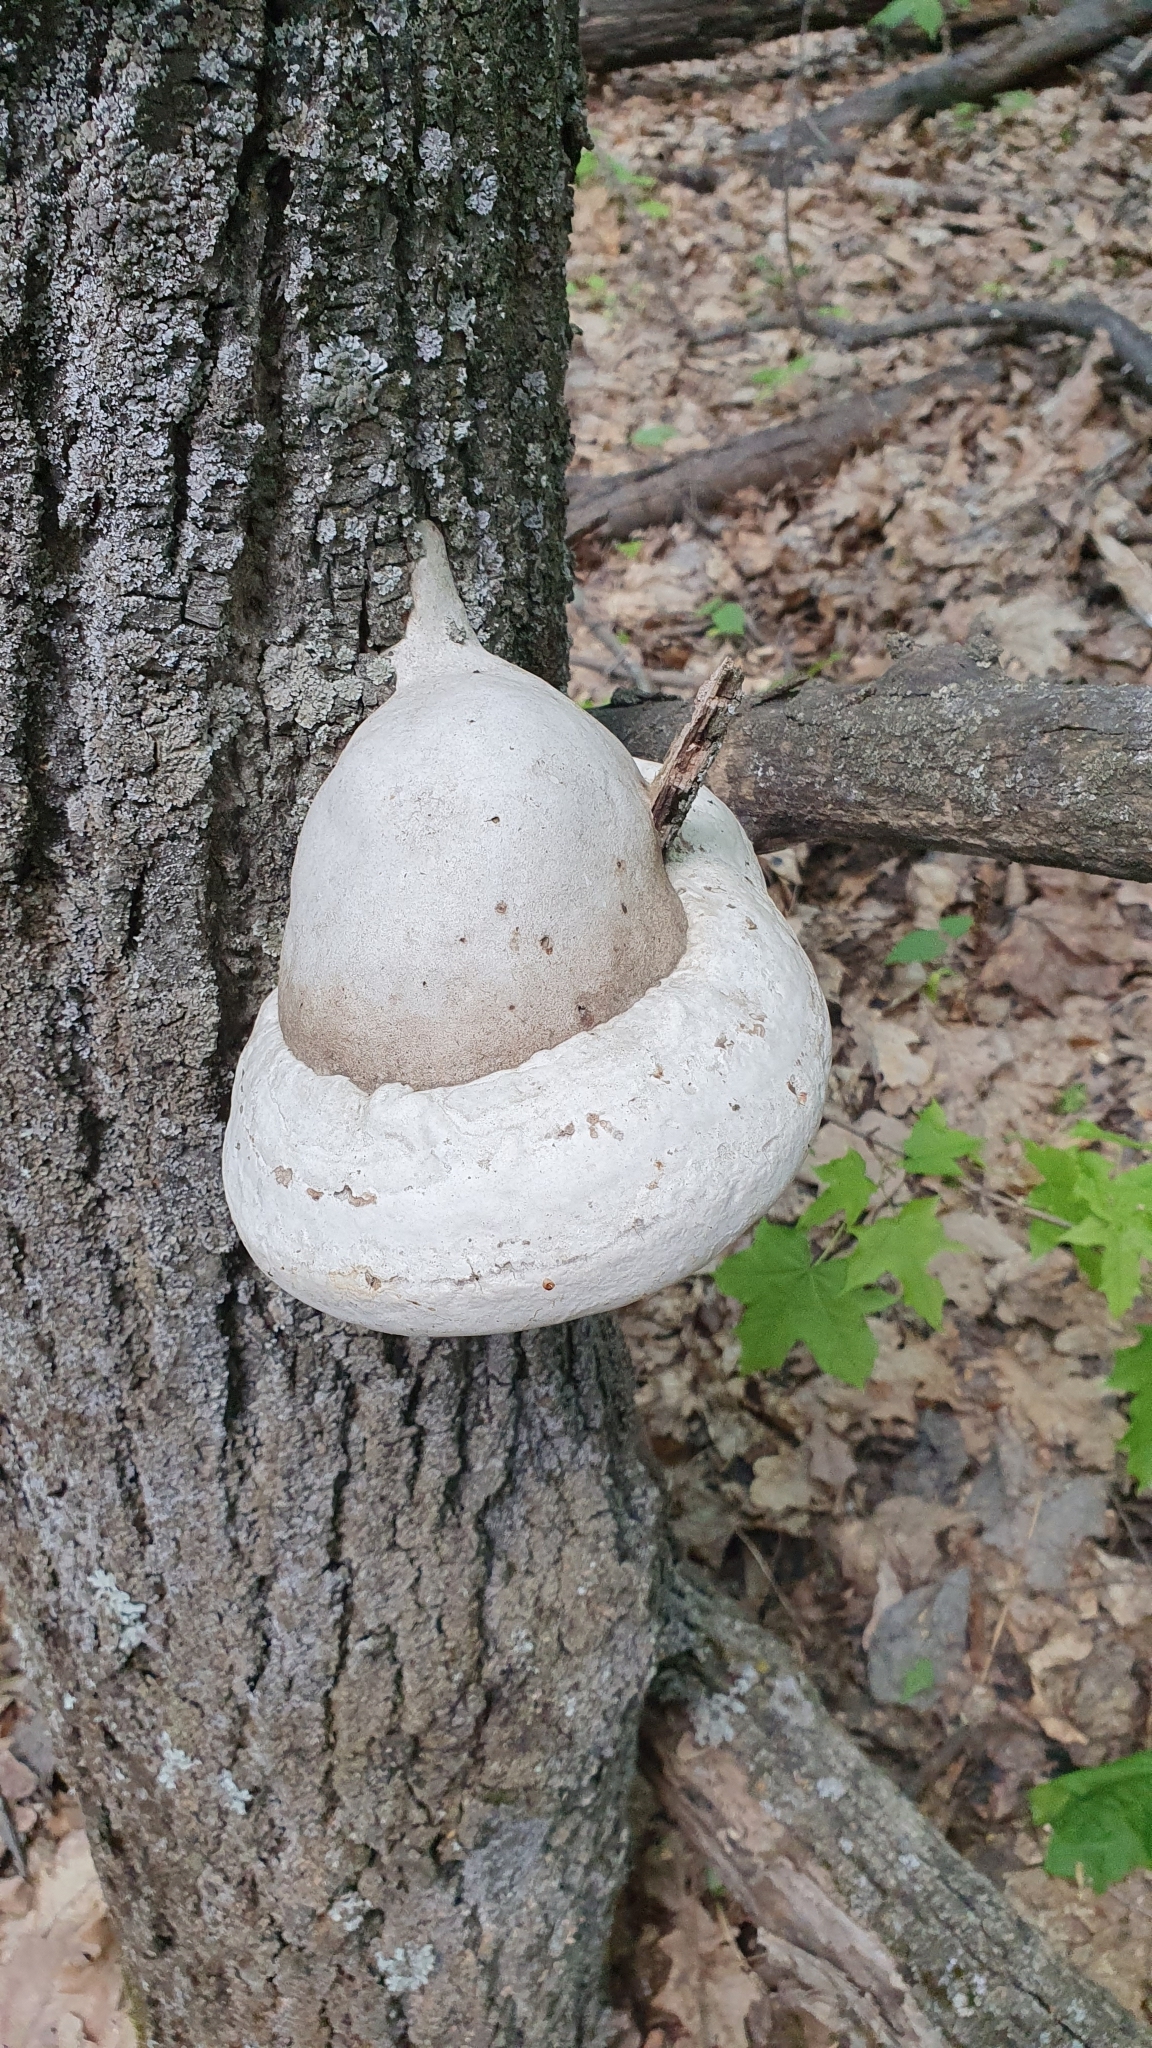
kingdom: Fungi
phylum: Basidiomycota
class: Agaricomycetes
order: Polyporales
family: Polyporaceae
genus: Fomes
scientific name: Fomes fomentarius
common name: Hoof fungus
